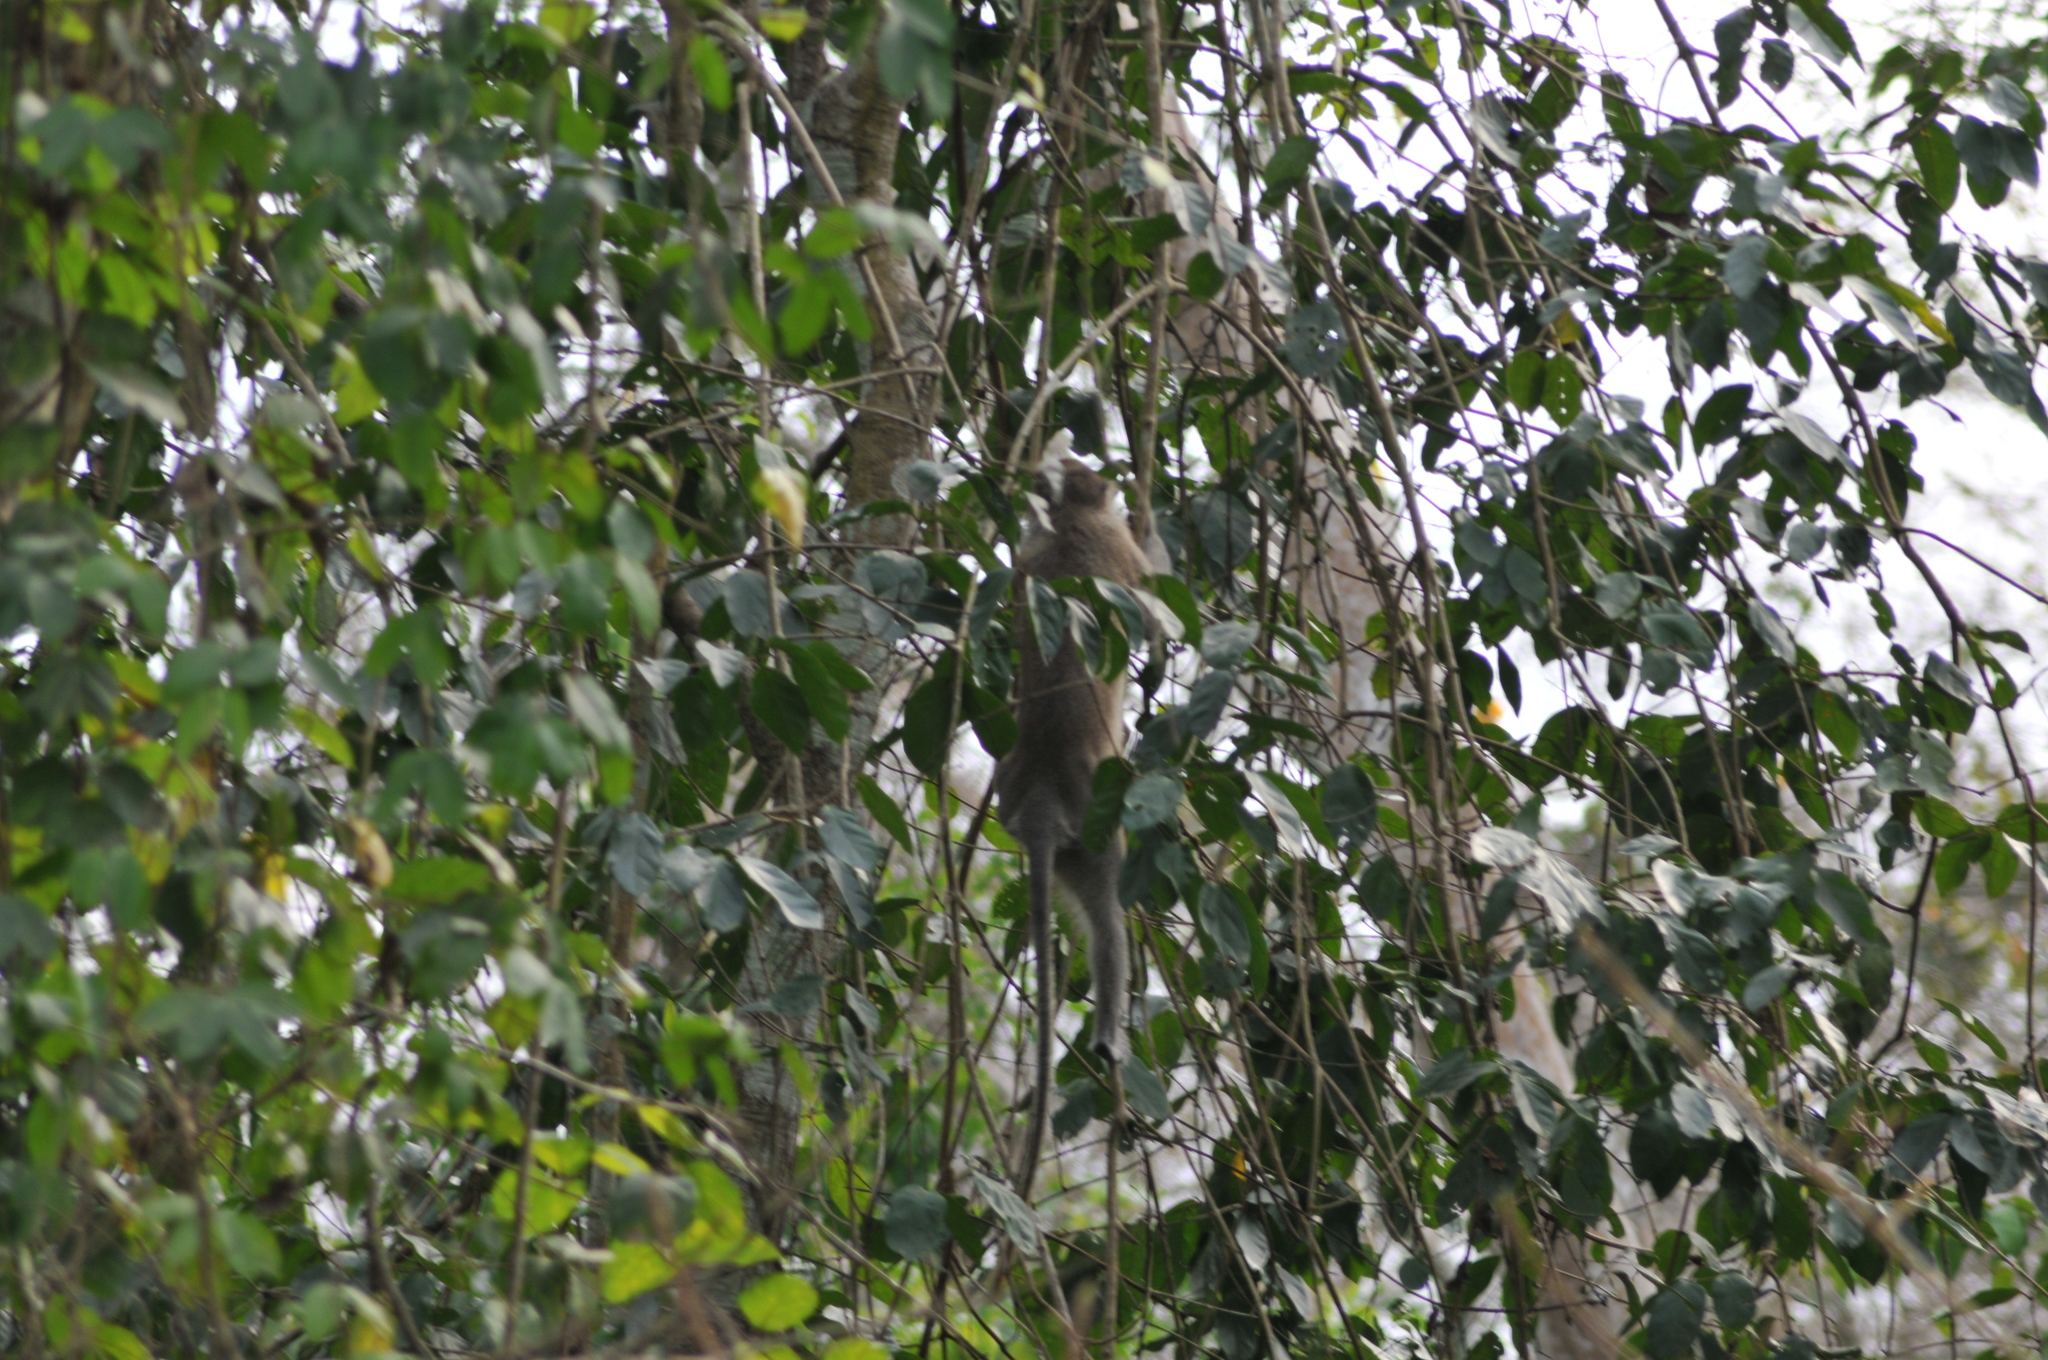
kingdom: Animalia
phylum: Chordata
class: Mammalia
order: Primates
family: Cercopithecidae
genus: Chlorocebus
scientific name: Chlorocebus tantalus
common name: Tantalus monkey
